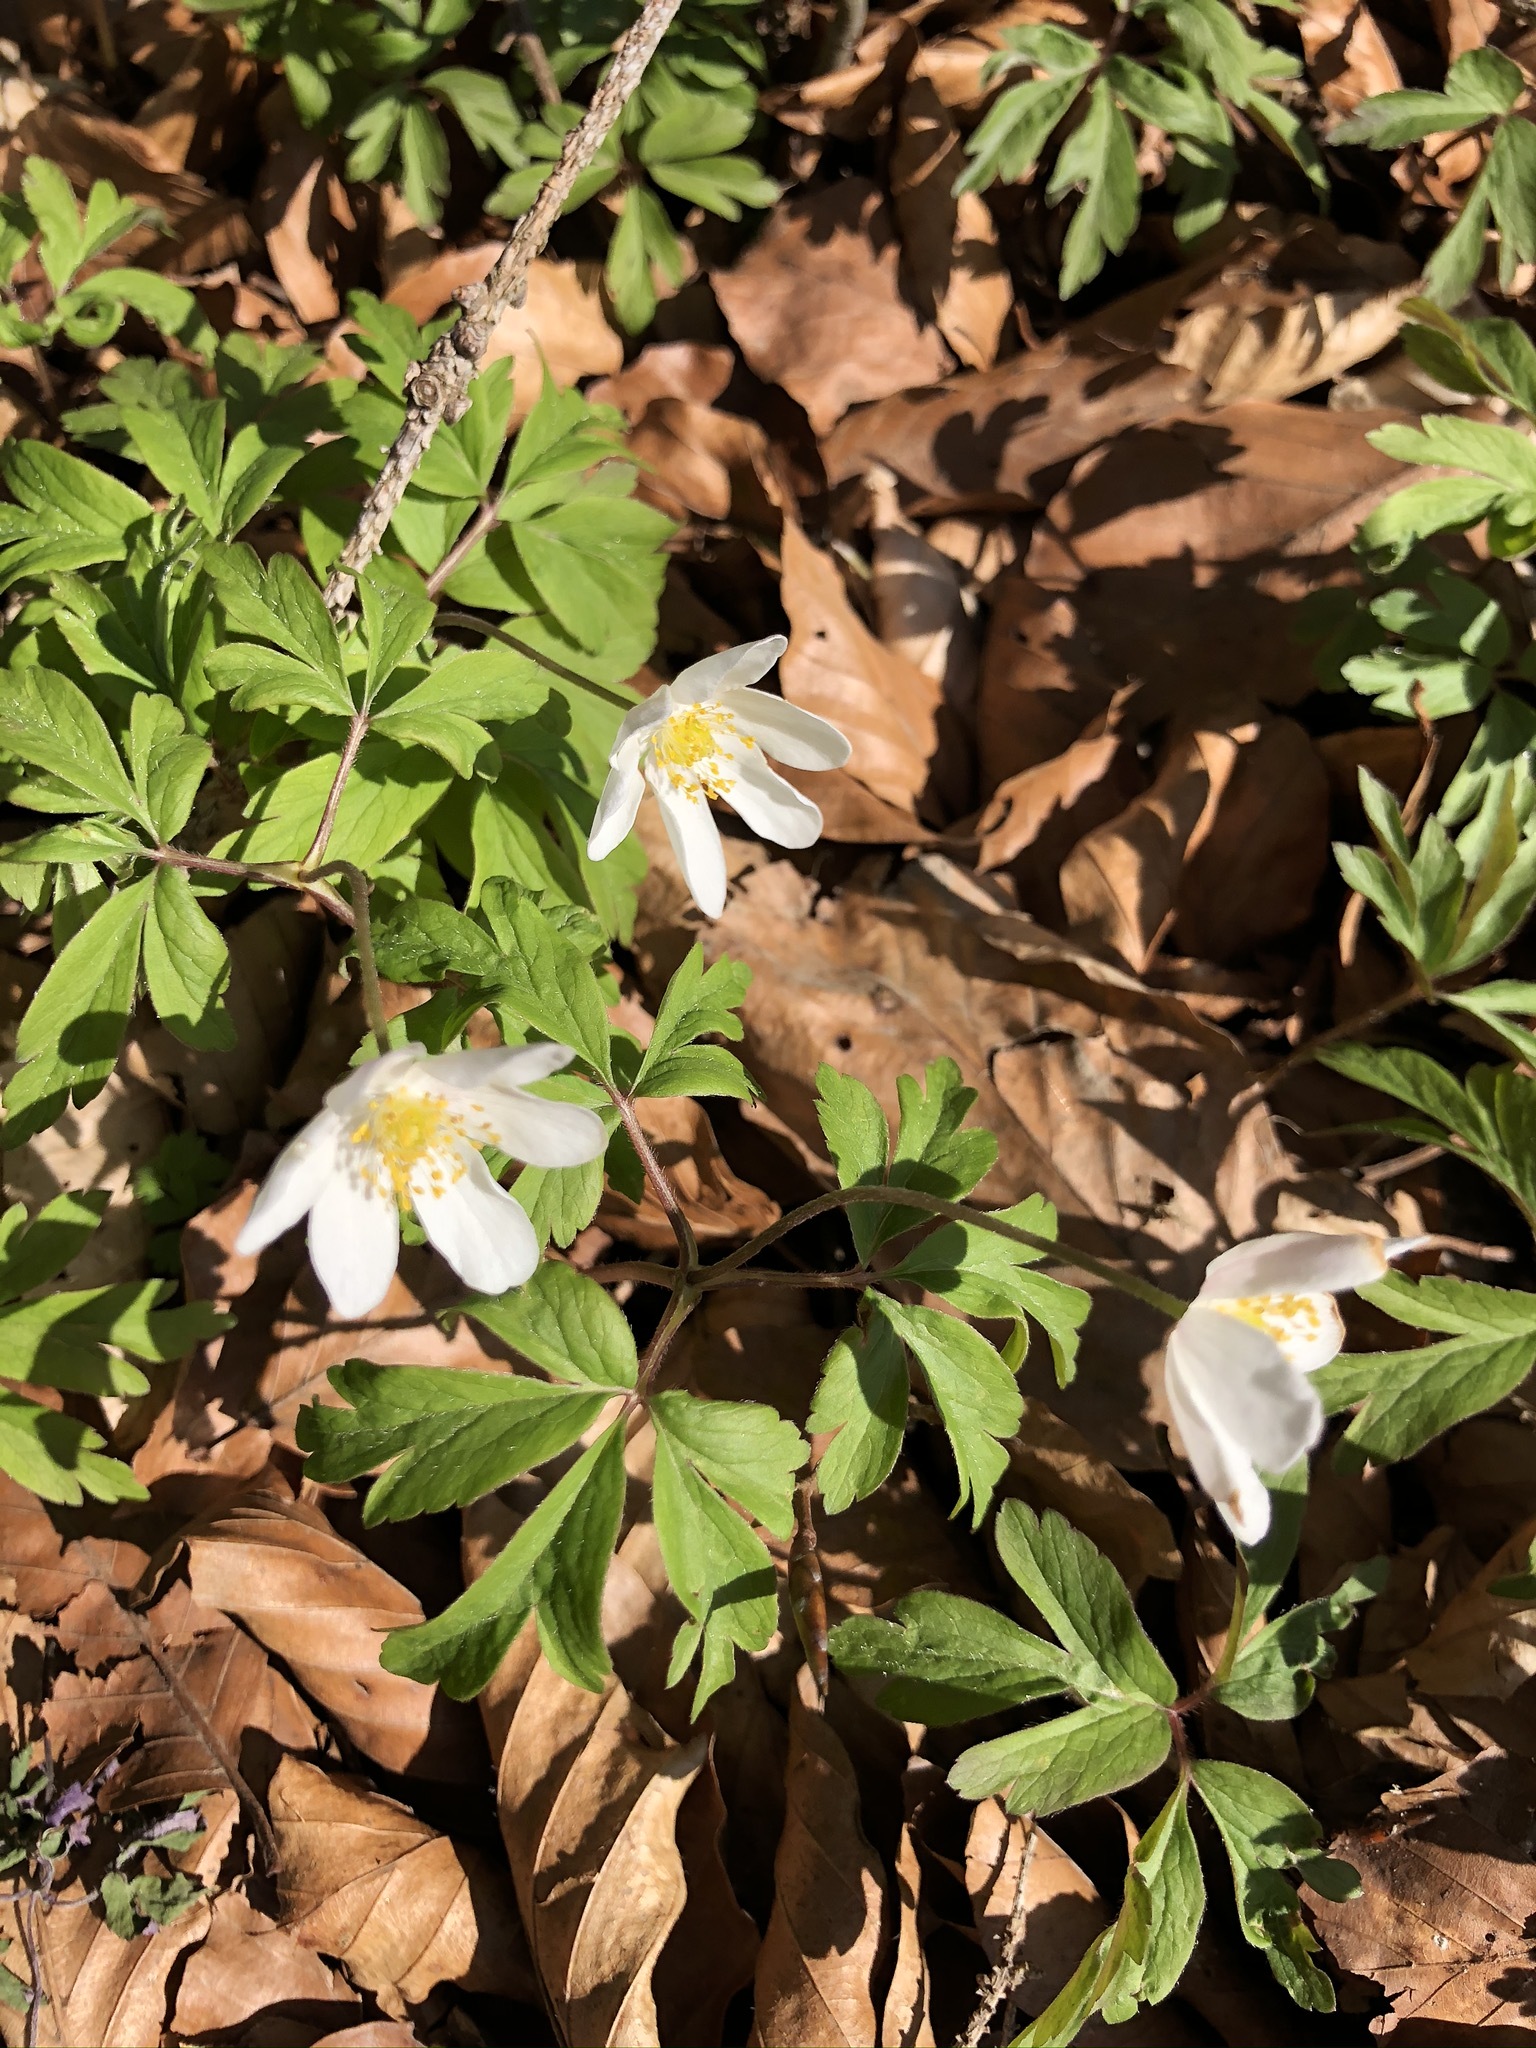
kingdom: Plantae
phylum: Tracheophyta
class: Magnoliopsida
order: Ranunculales
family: Ranunculaceae
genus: Anemone
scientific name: Anemone nemorosa
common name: Wood anemone
